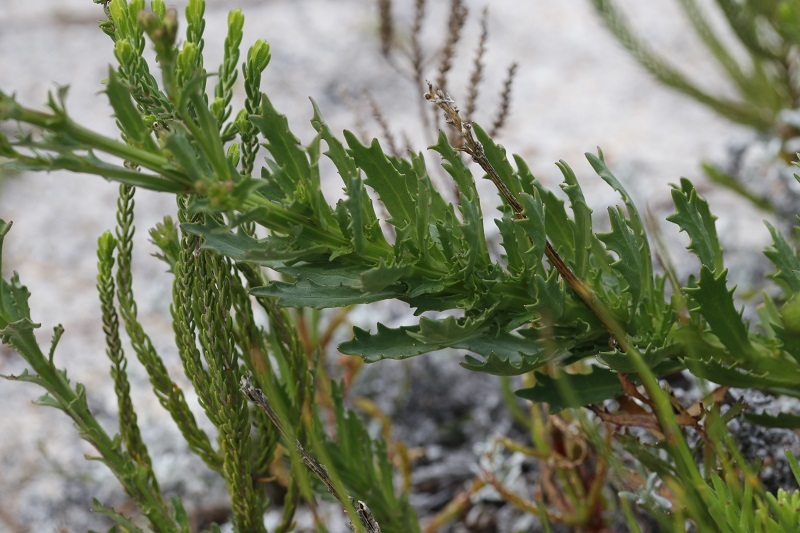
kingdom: Plantae
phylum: Tracheophyta
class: Magnoliopsida
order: Asterales
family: Campanulaceae
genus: Lobelia
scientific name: Lobelia comosa
